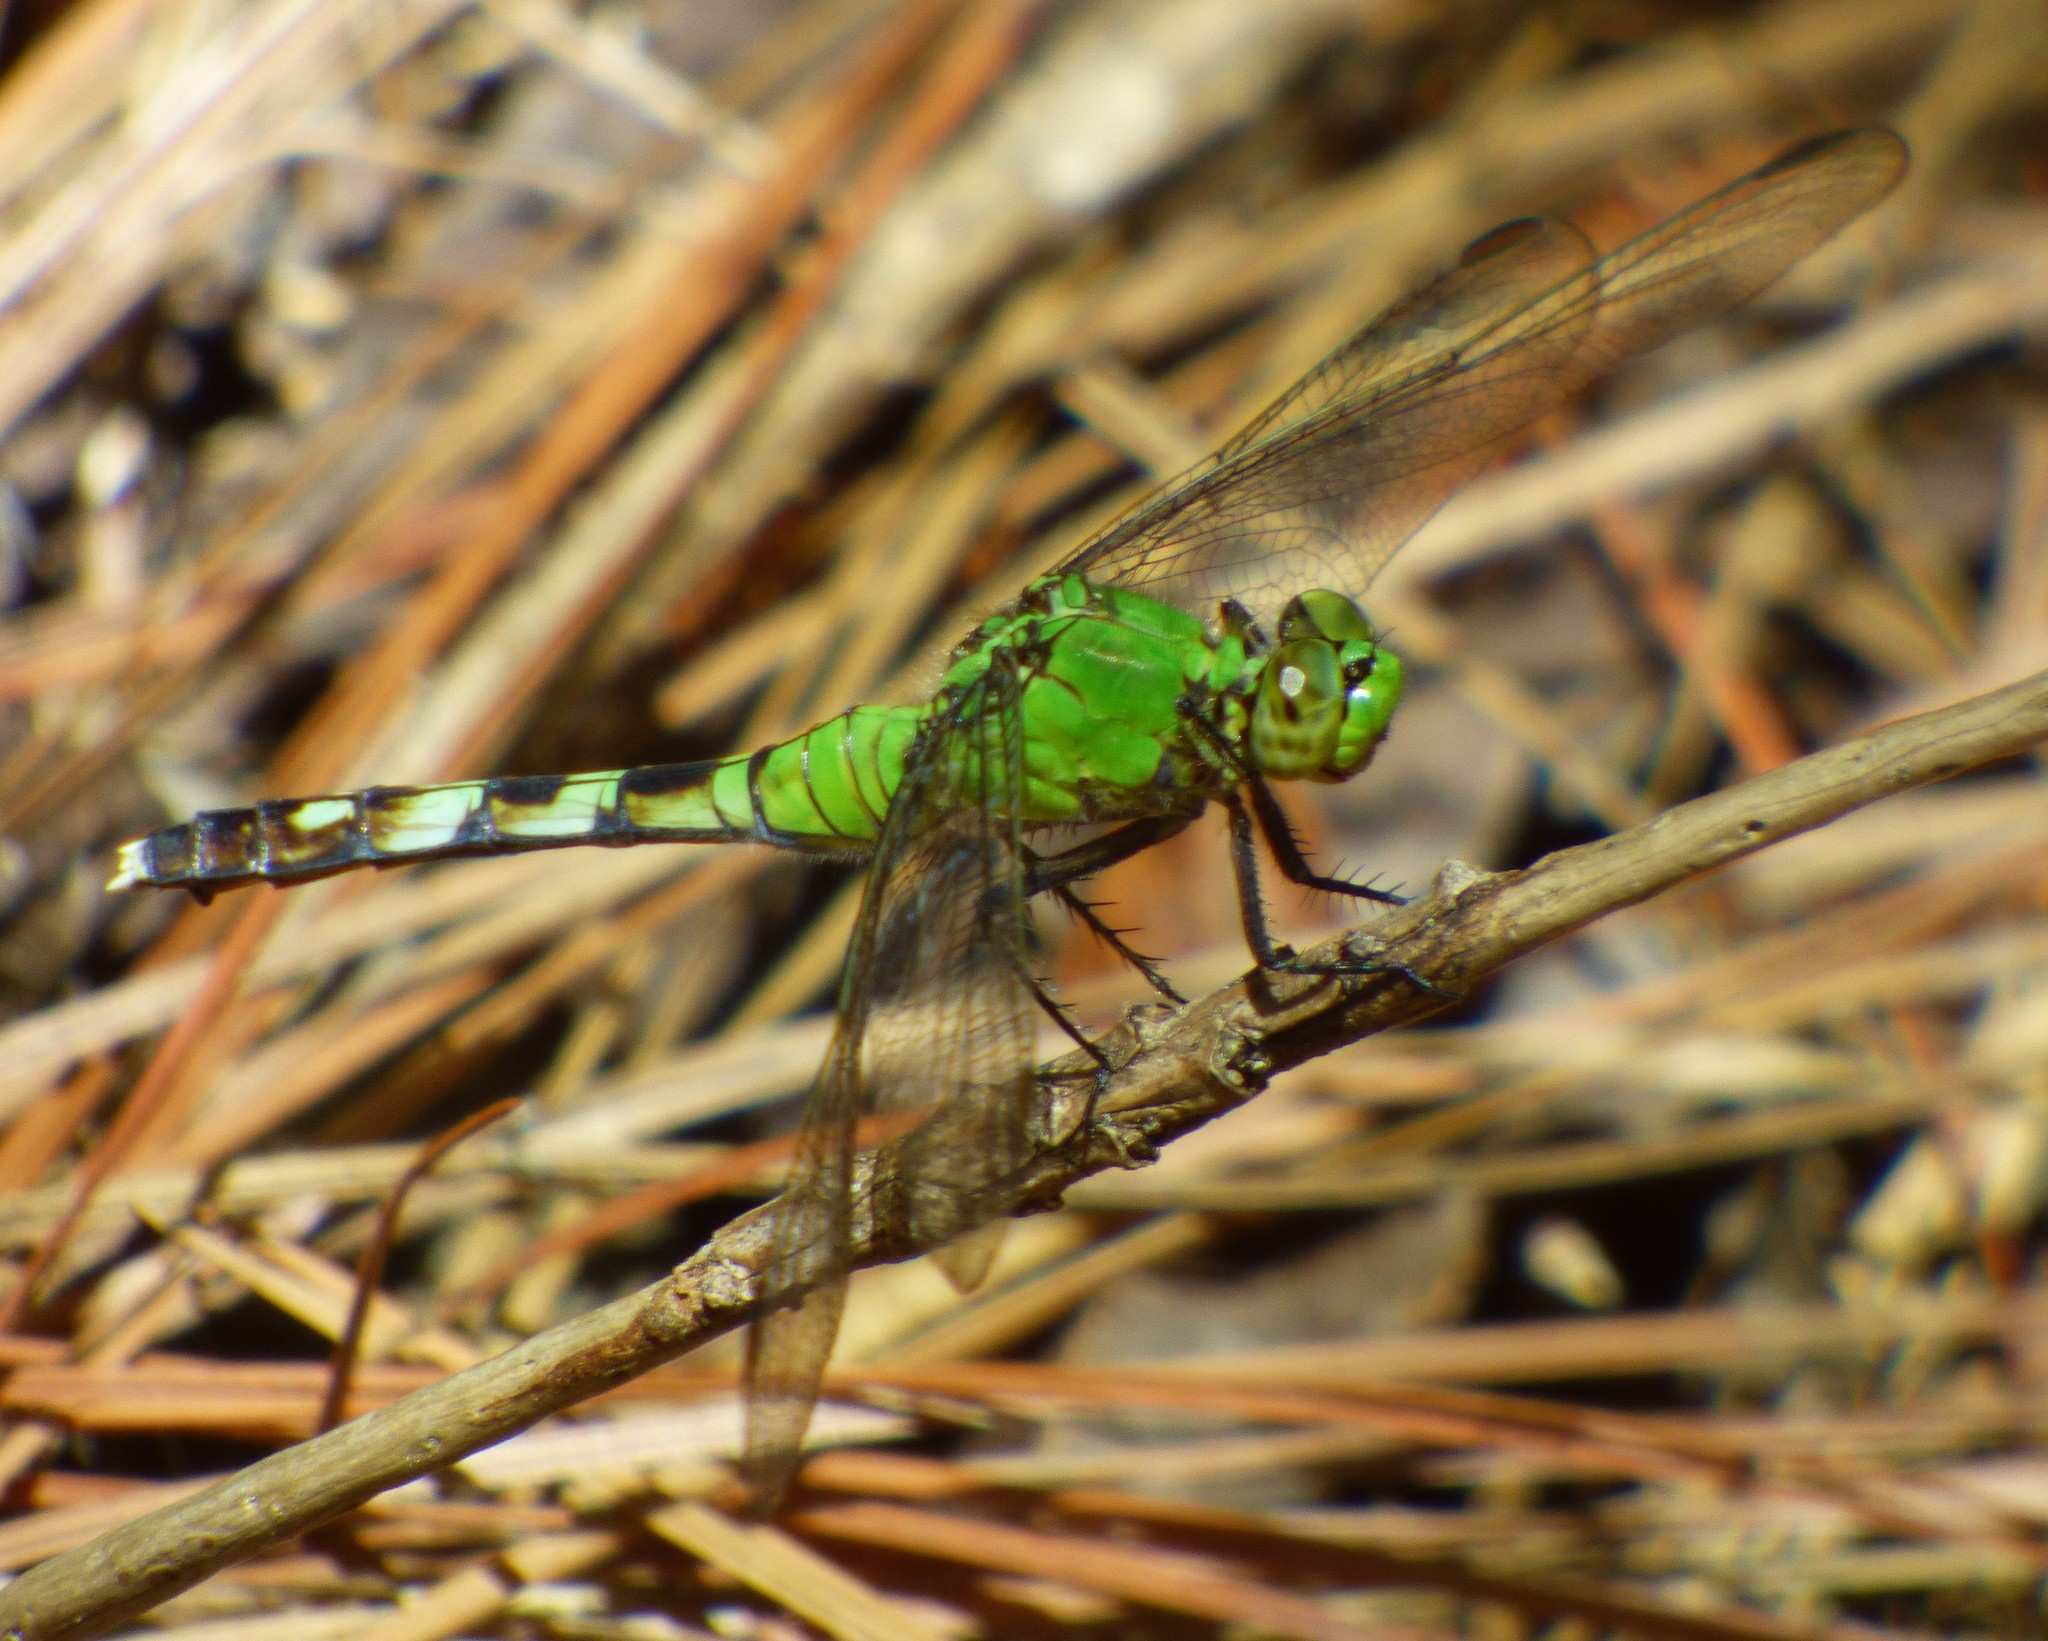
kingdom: Animalia
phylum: Arthropoda
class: Insecta
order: Odonata
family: Libellulidae
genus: Erythemis
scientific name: Erythemis simplicicollis
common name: Eastern pondhawk
